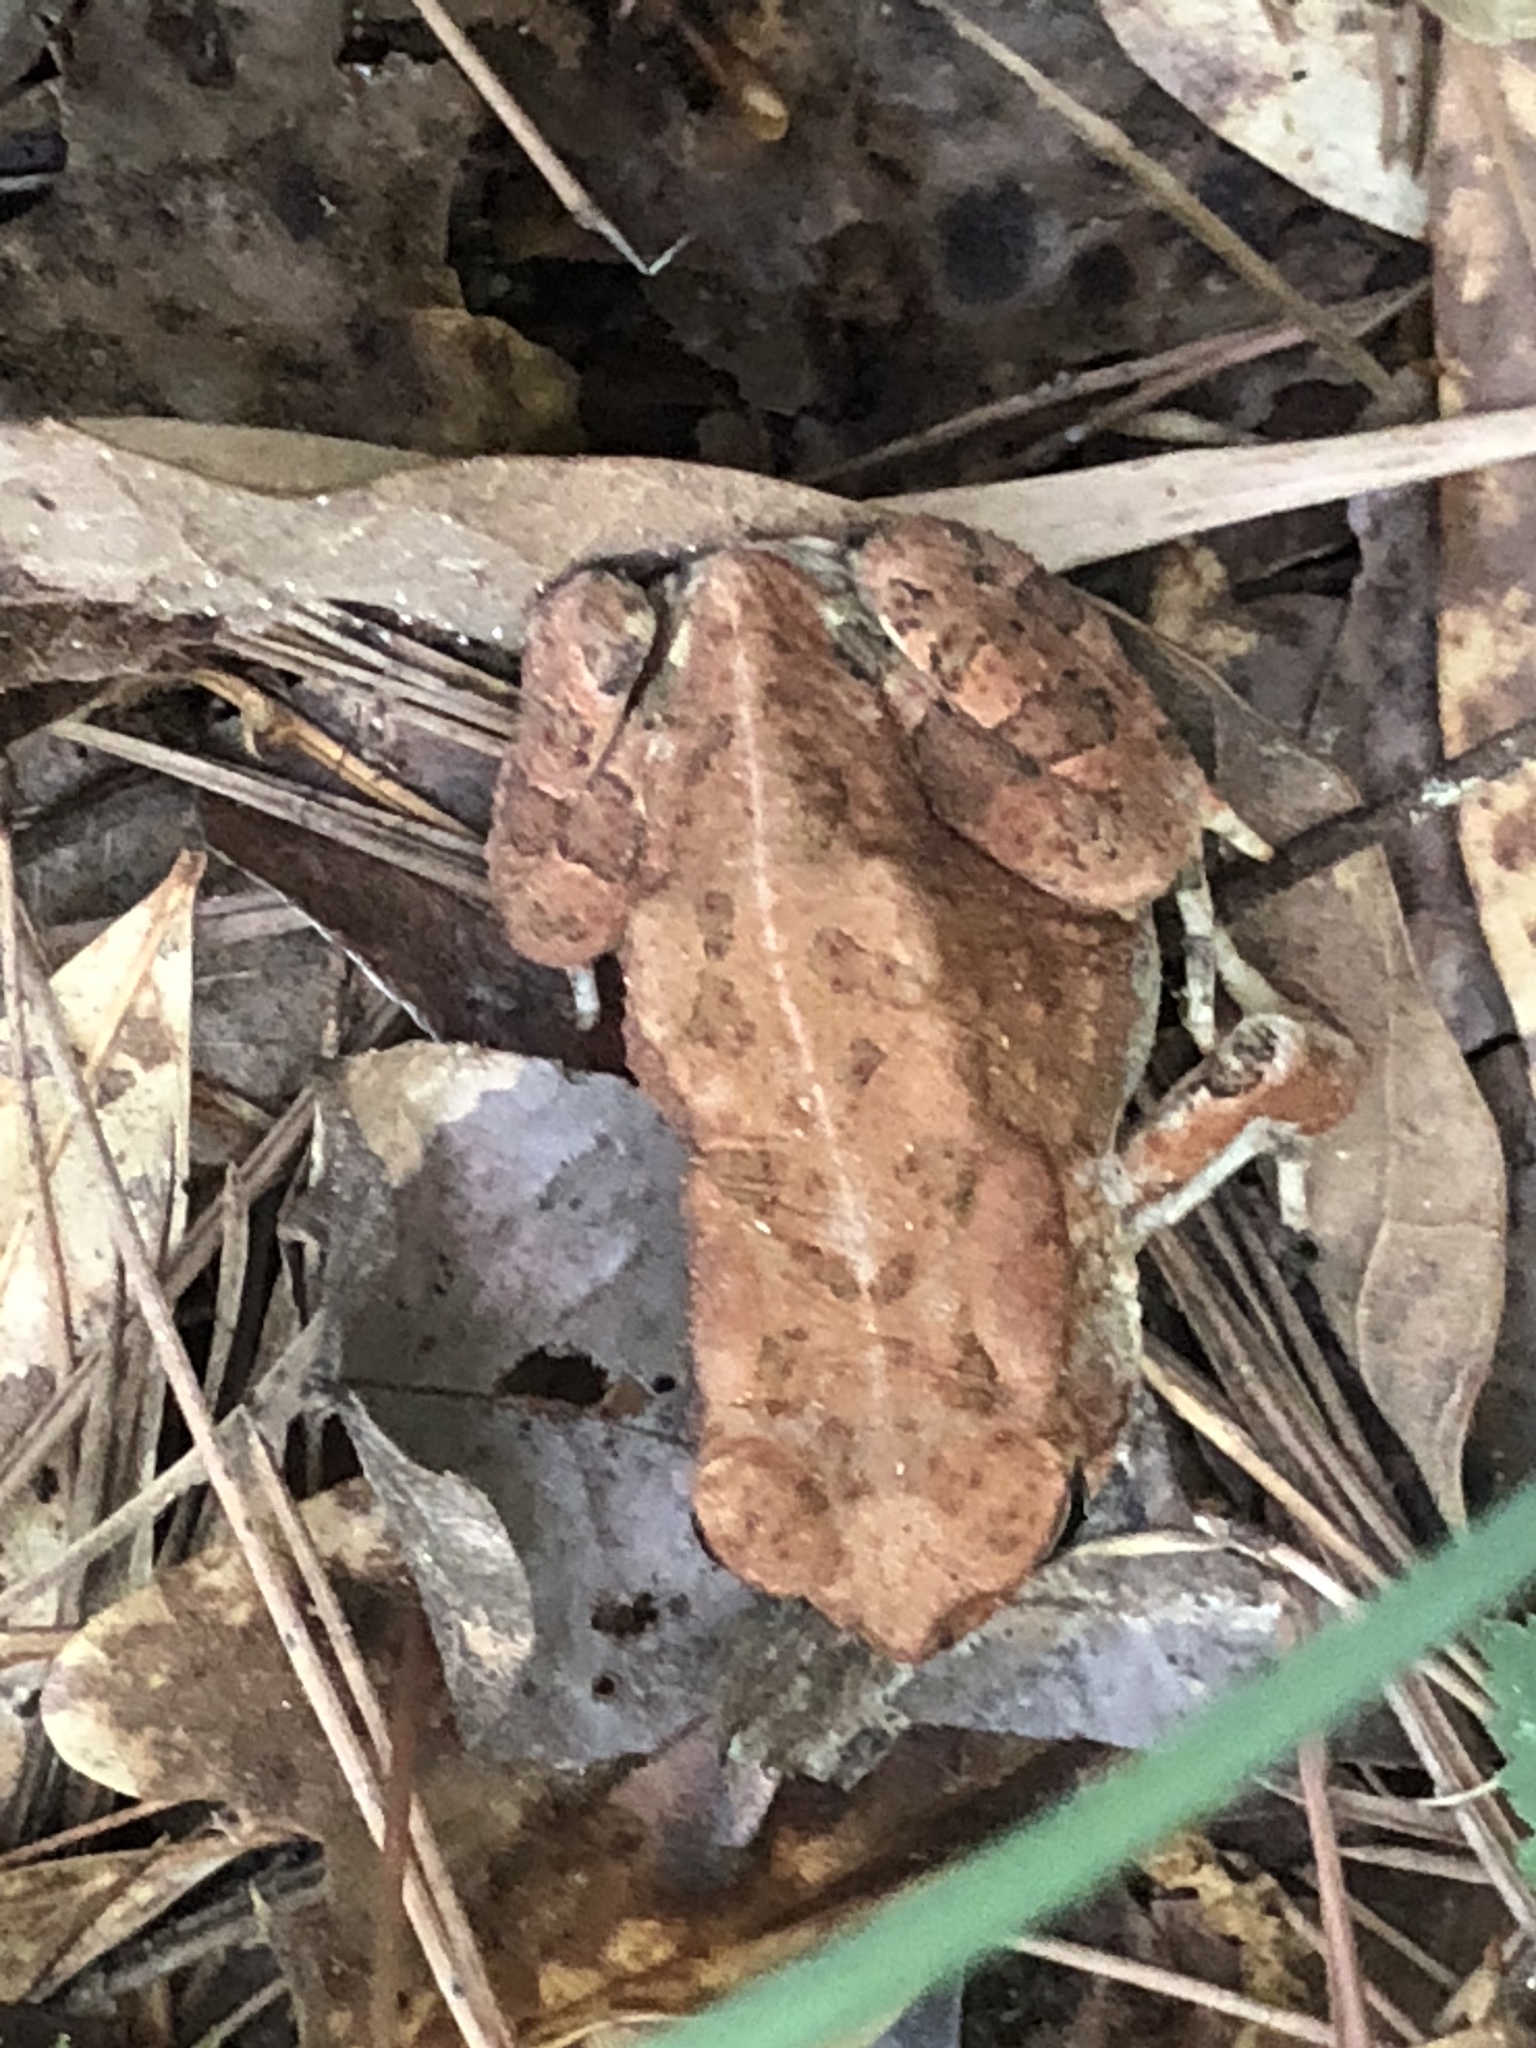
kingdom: Animalia
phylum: Chordata
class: Amphibia
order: Anura
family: Bufonidae
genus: Anaxyrus
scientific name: Anaxyrus fowleri
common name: Fowler's toad
